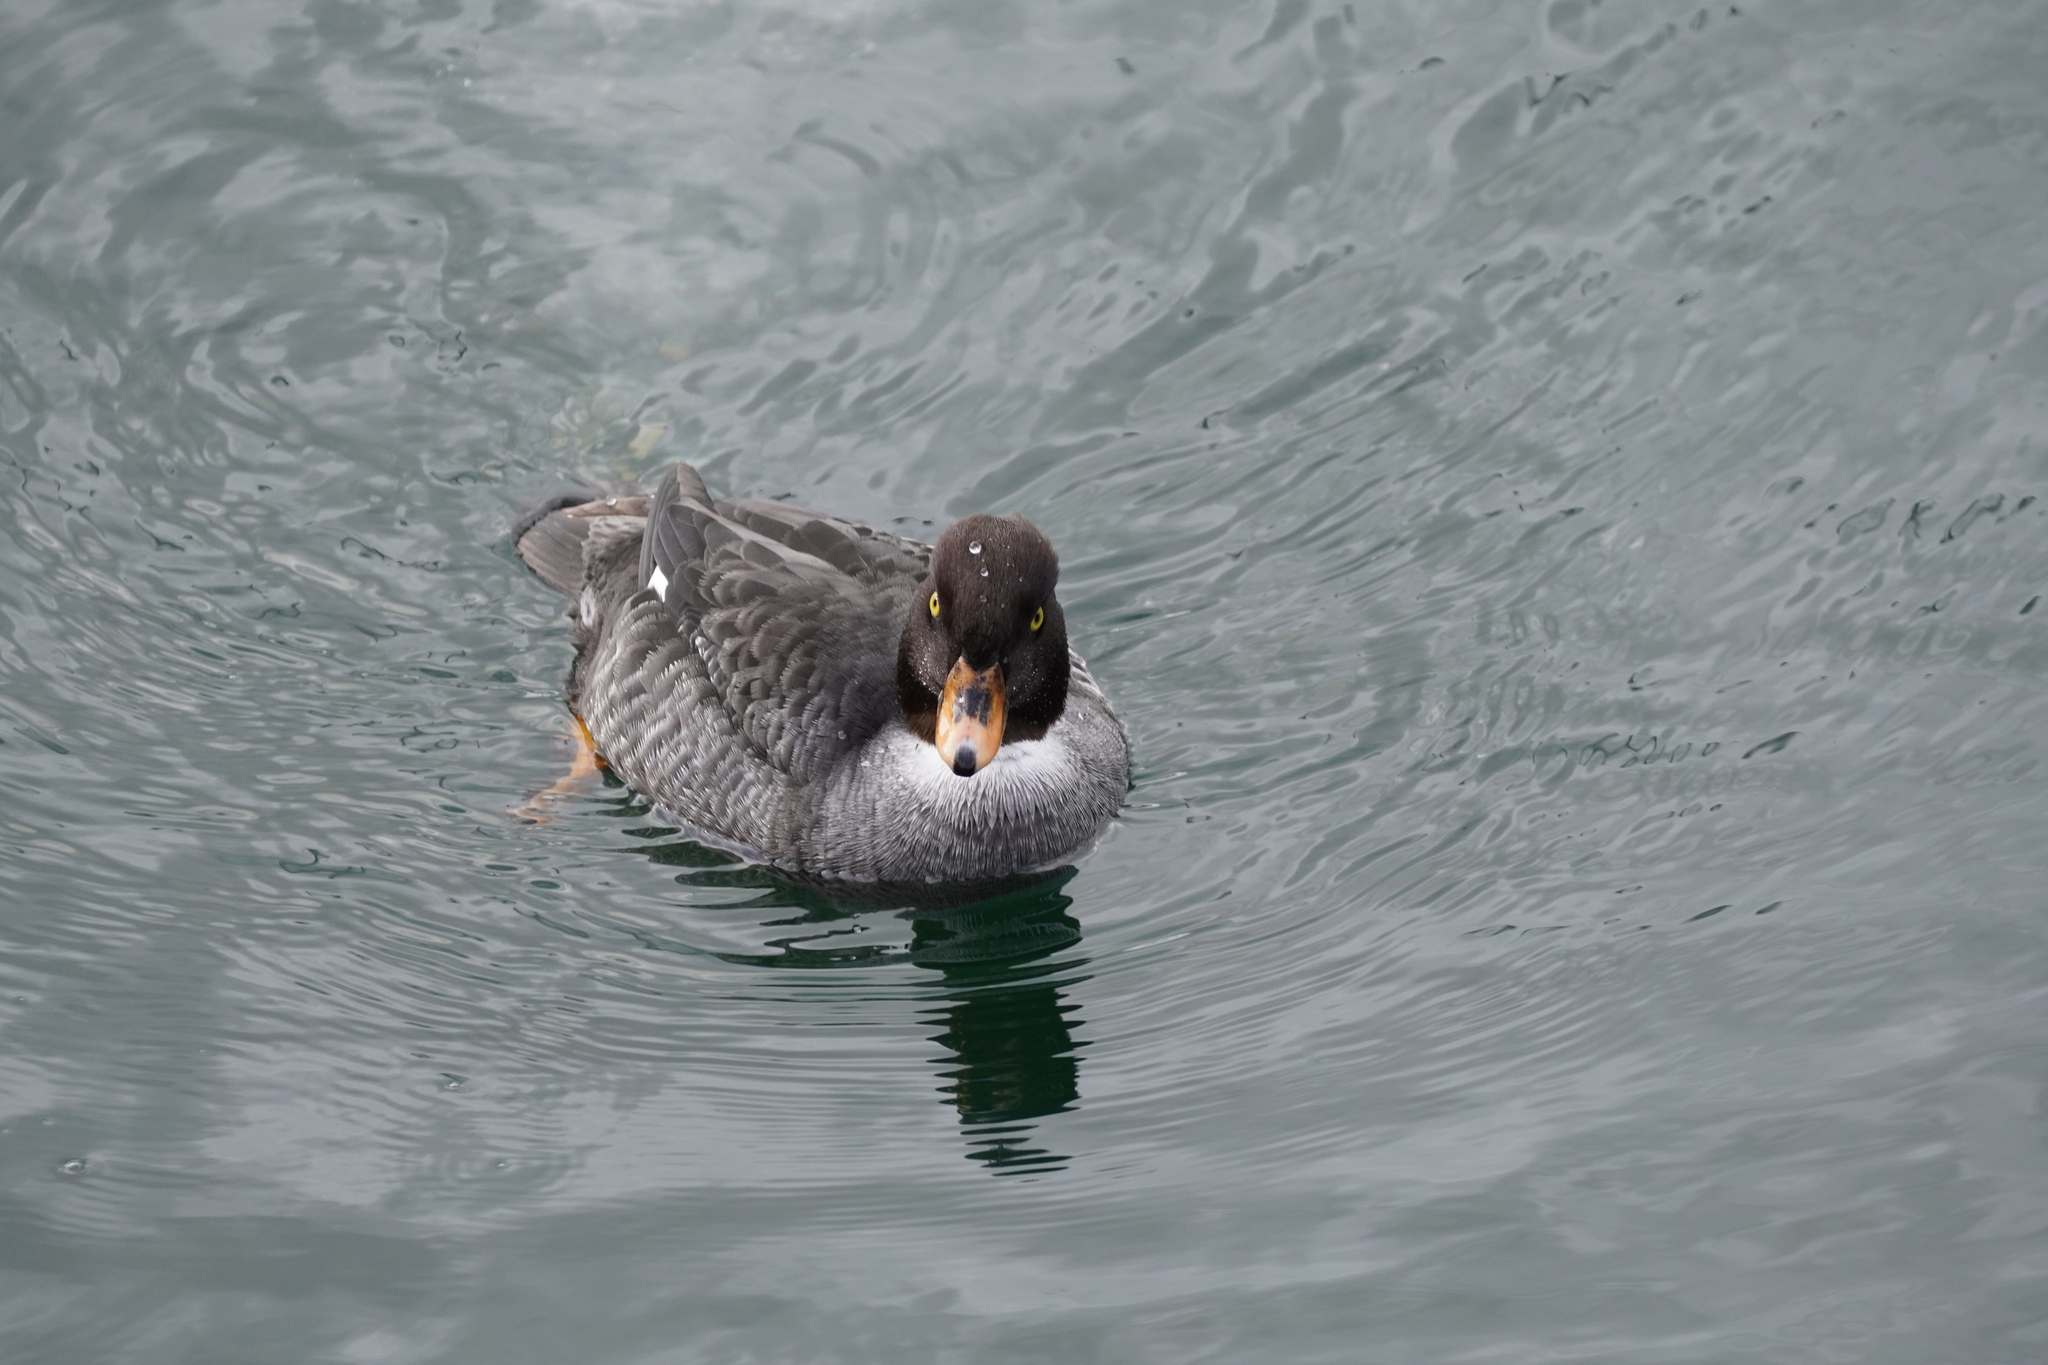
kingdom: Animalia
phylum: Chordata
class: Aves
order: Anseriformes
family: Anatidae
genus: Bucephala
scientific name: Bucephala islandica
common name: Barrow's goldeneye
